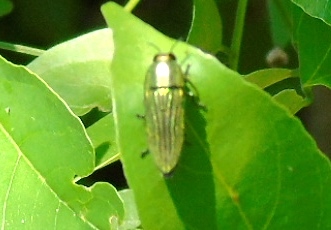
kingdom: Animalia
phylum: Arthropoda
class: Insecta
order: Coleoptera
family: Buprestidae
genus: Agaeocera
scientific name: Agaeocera scintillans
